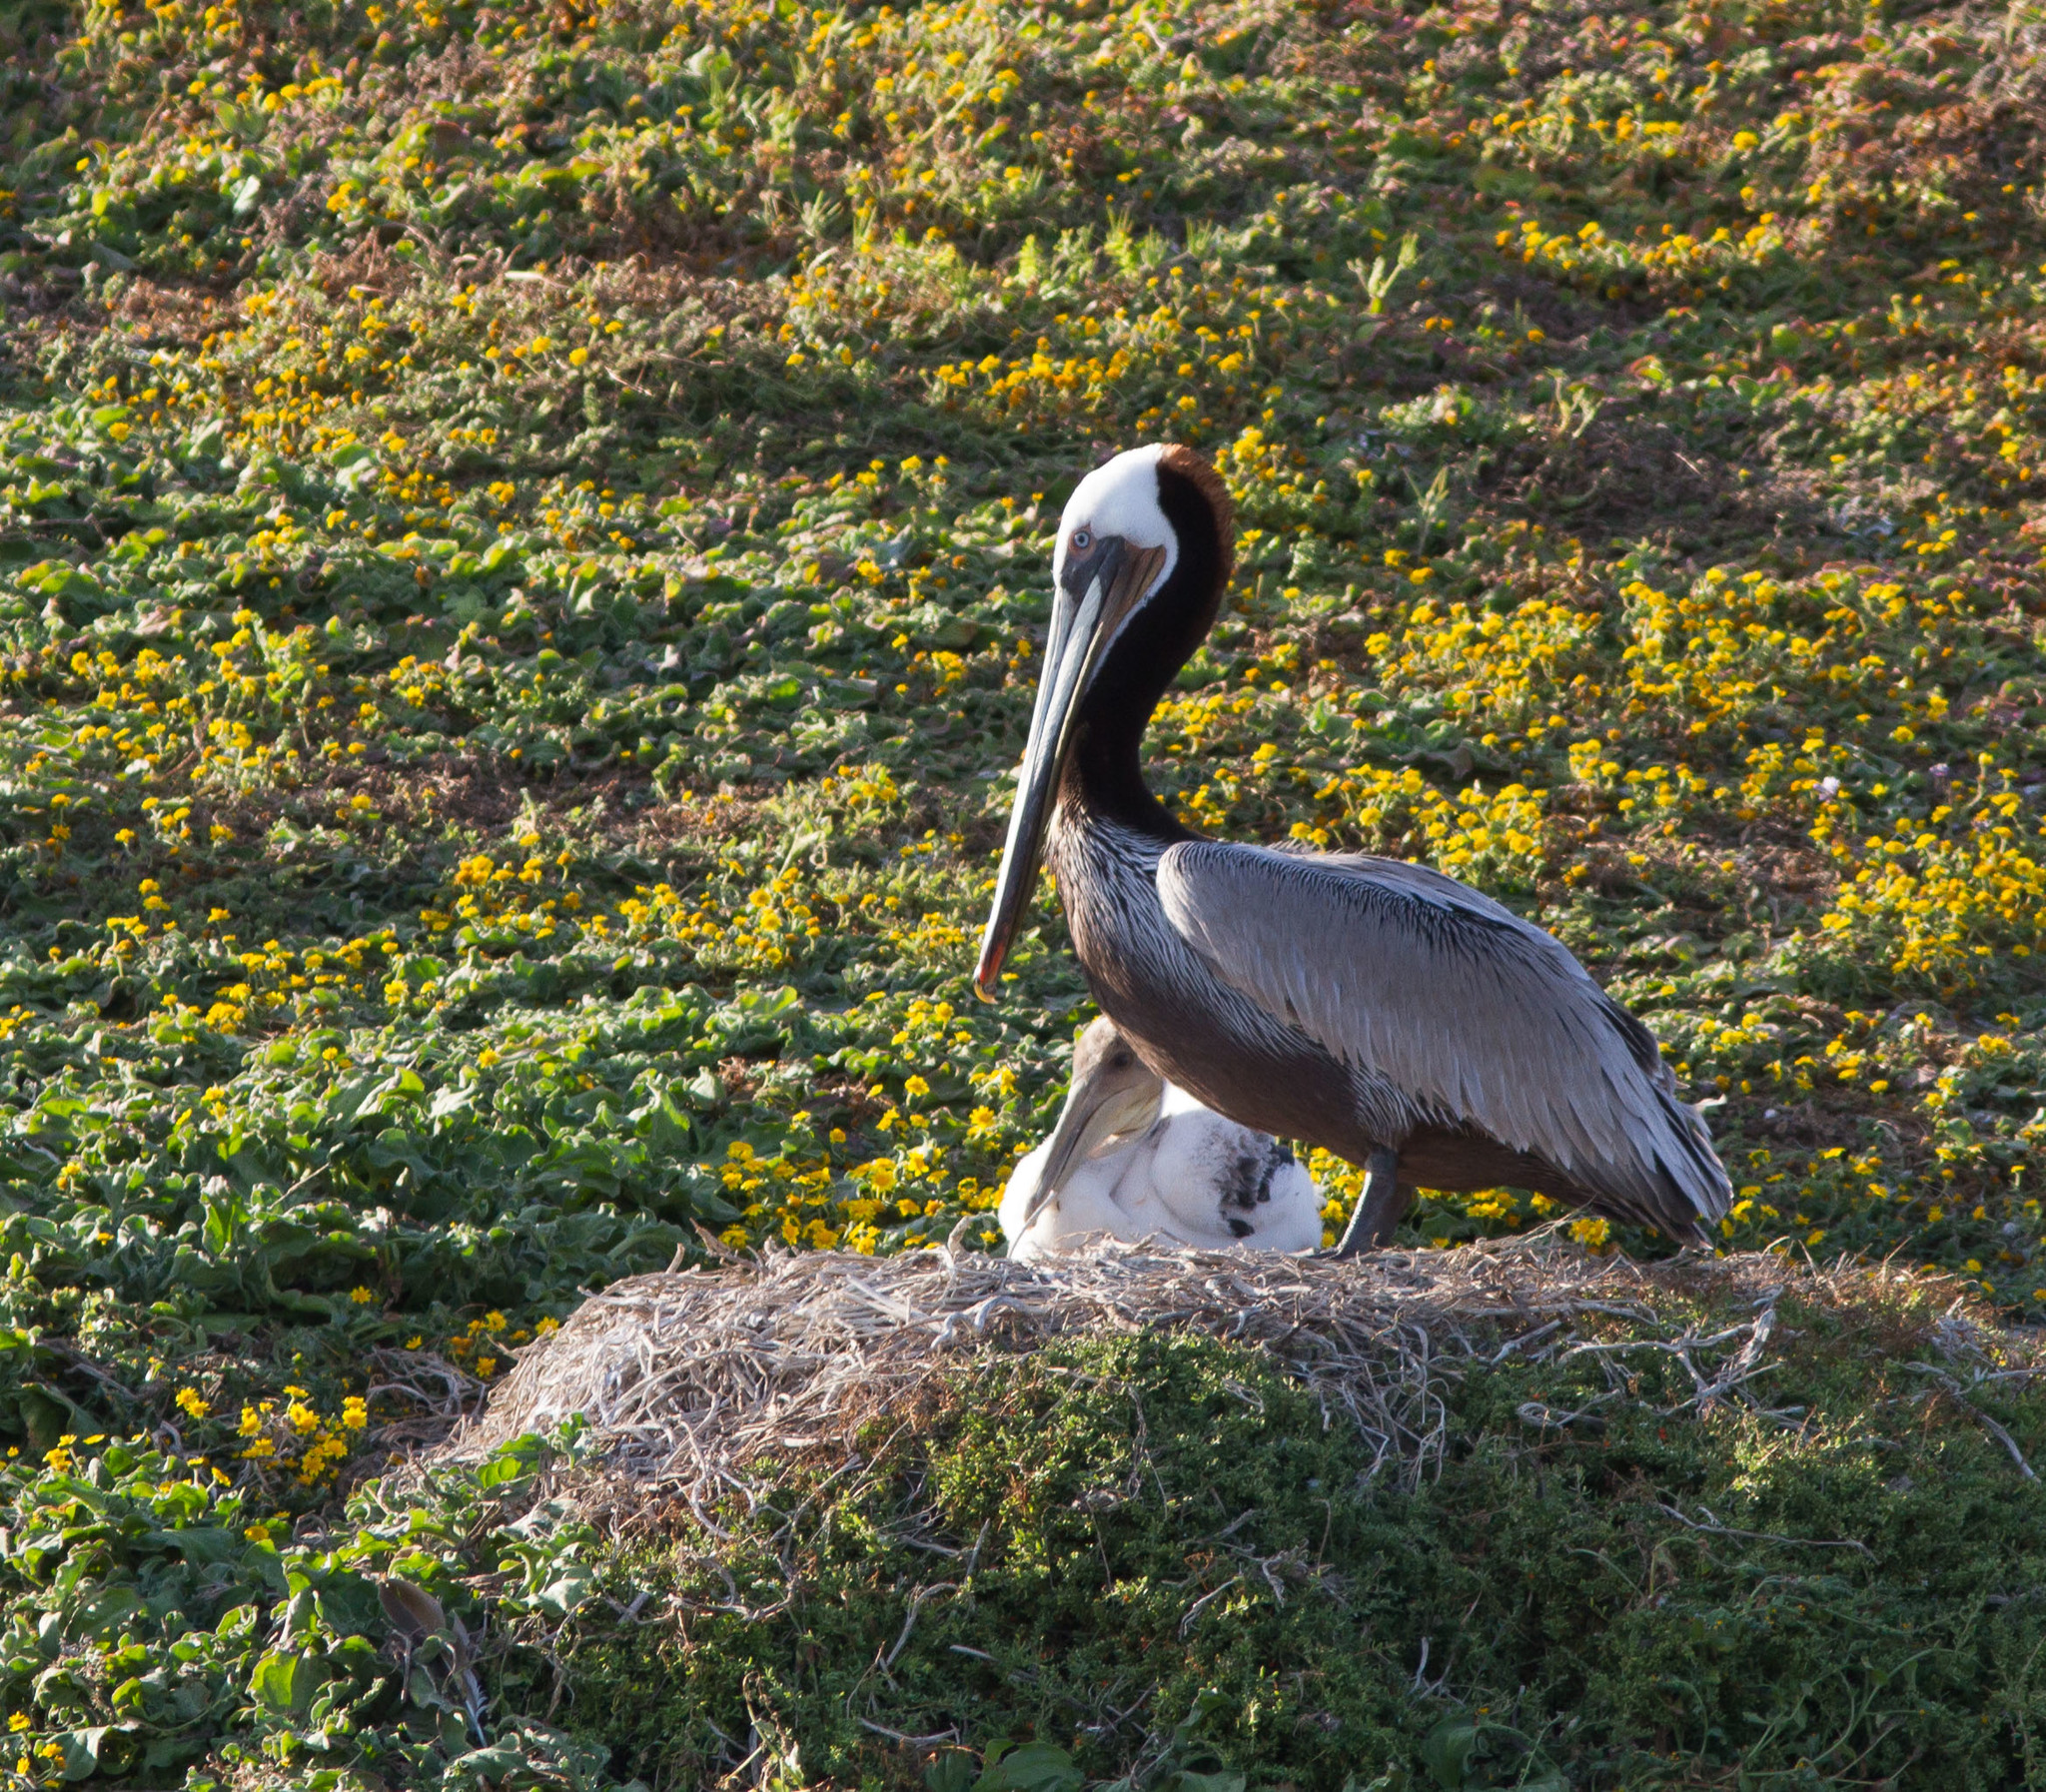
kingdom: Animalia
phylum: Chordata
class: Aves
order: Pelecaniformes
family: Pelecanidae
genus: Pelecanus
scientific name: Pelecanus occidentalis
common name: Brown pelican
